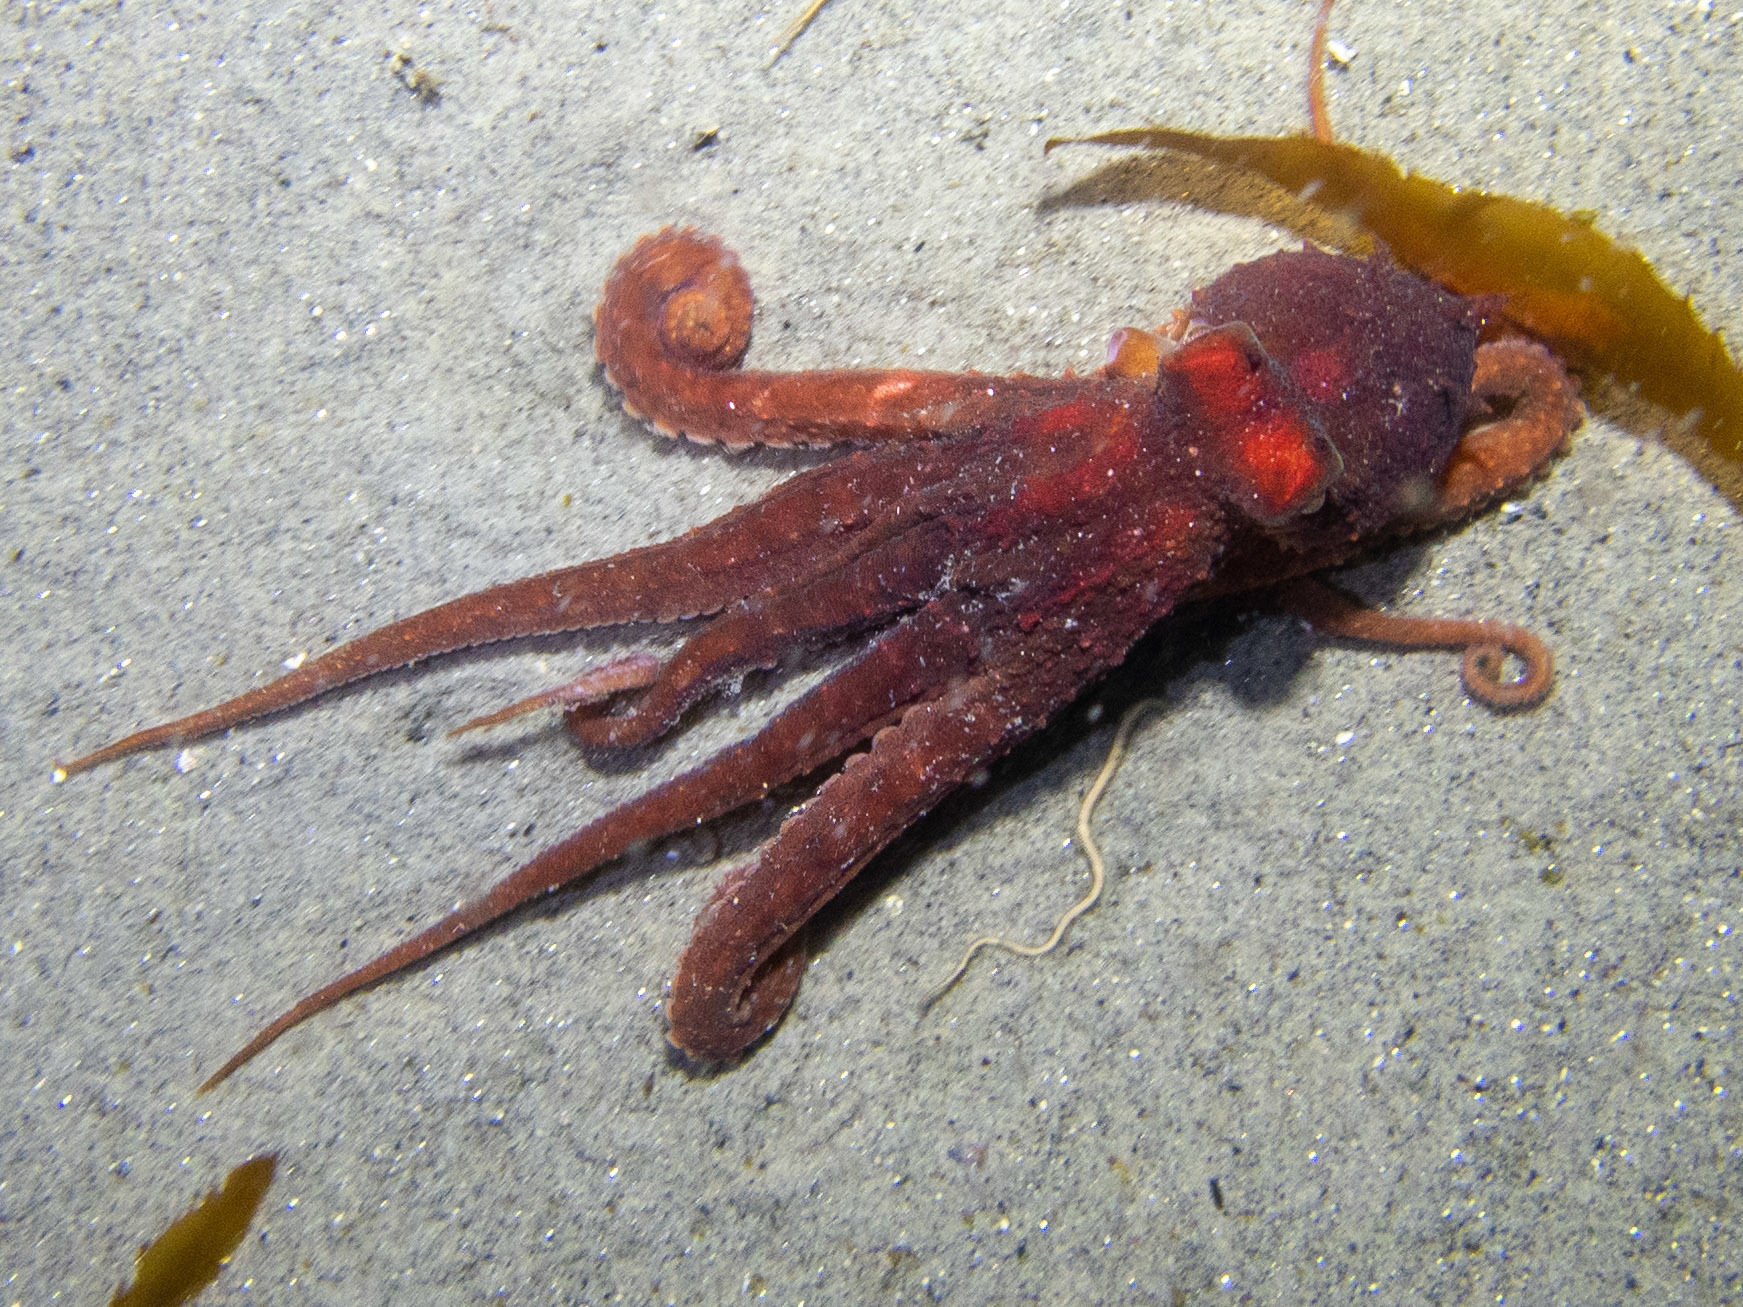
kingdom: Animalia
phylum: Mollusca
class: Cephalopoda
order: Octopoda
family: Octopodidae
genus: Octopus
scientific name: Octopus rubescens
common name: East pacific red octopus
